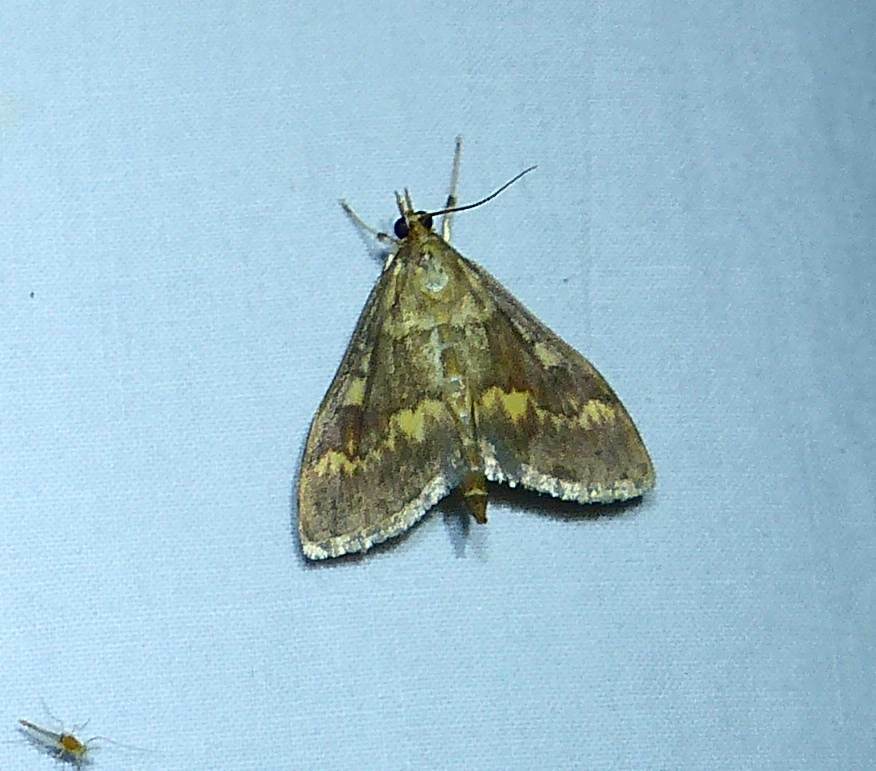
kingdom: Animalia
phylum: Arthropoda
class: Insecta
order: Lepidoptera
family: Crambidae
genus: Ostrinia
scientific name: Ostrinia nubilalis
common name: European corn borer
